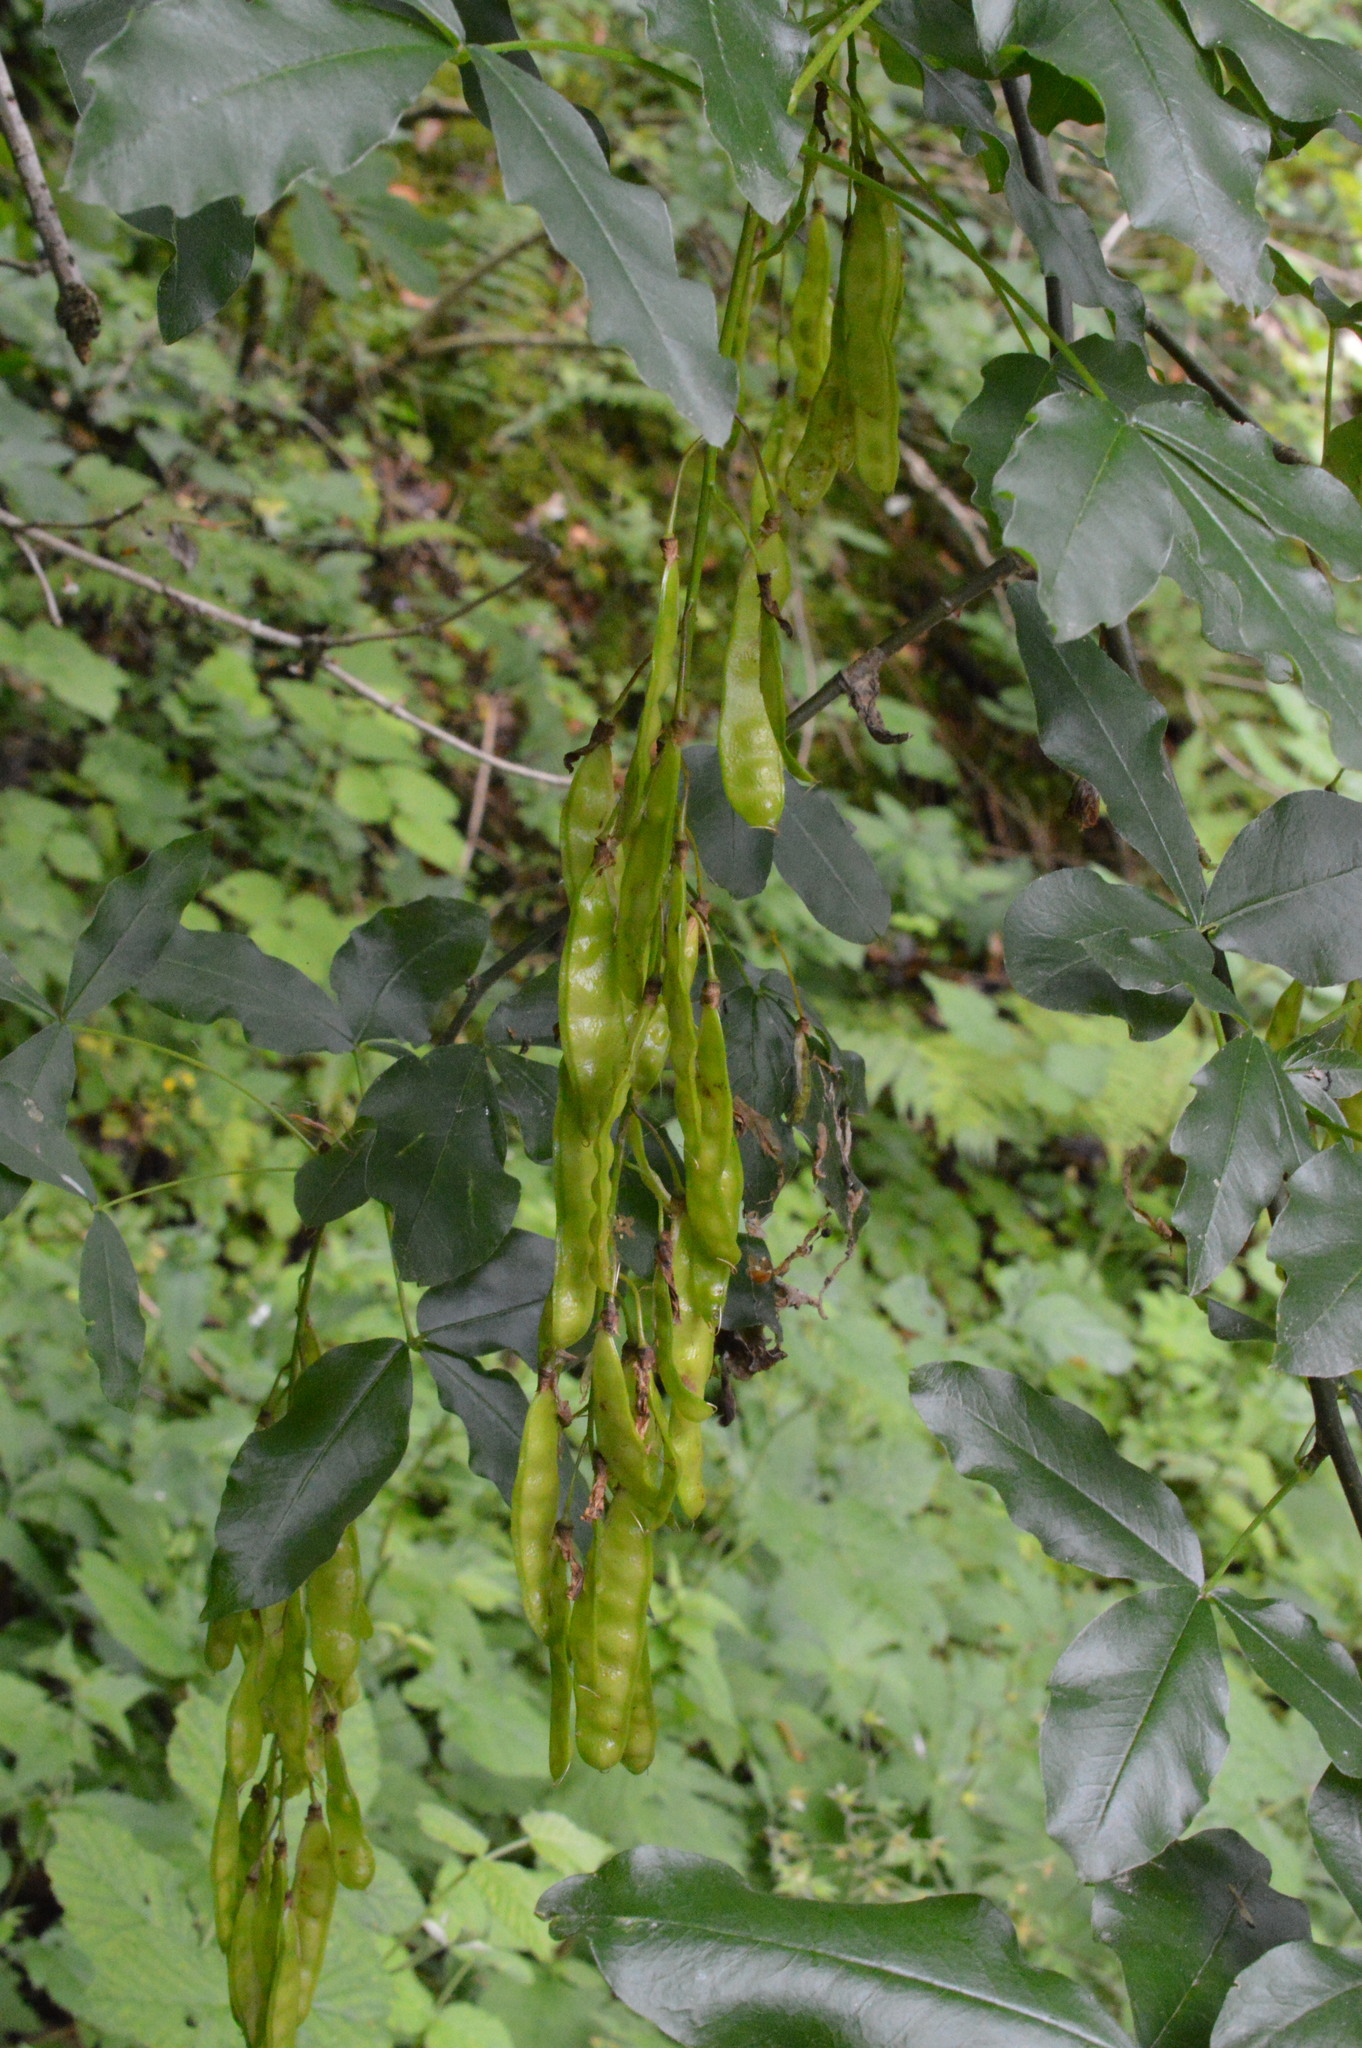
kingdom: Plantae
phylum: Tracheophyta
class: Magnoliopsida
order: Fabales
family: Fabaceae
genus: Laburnum
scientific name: Laburnum alpinum
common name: Scottish laburnum
